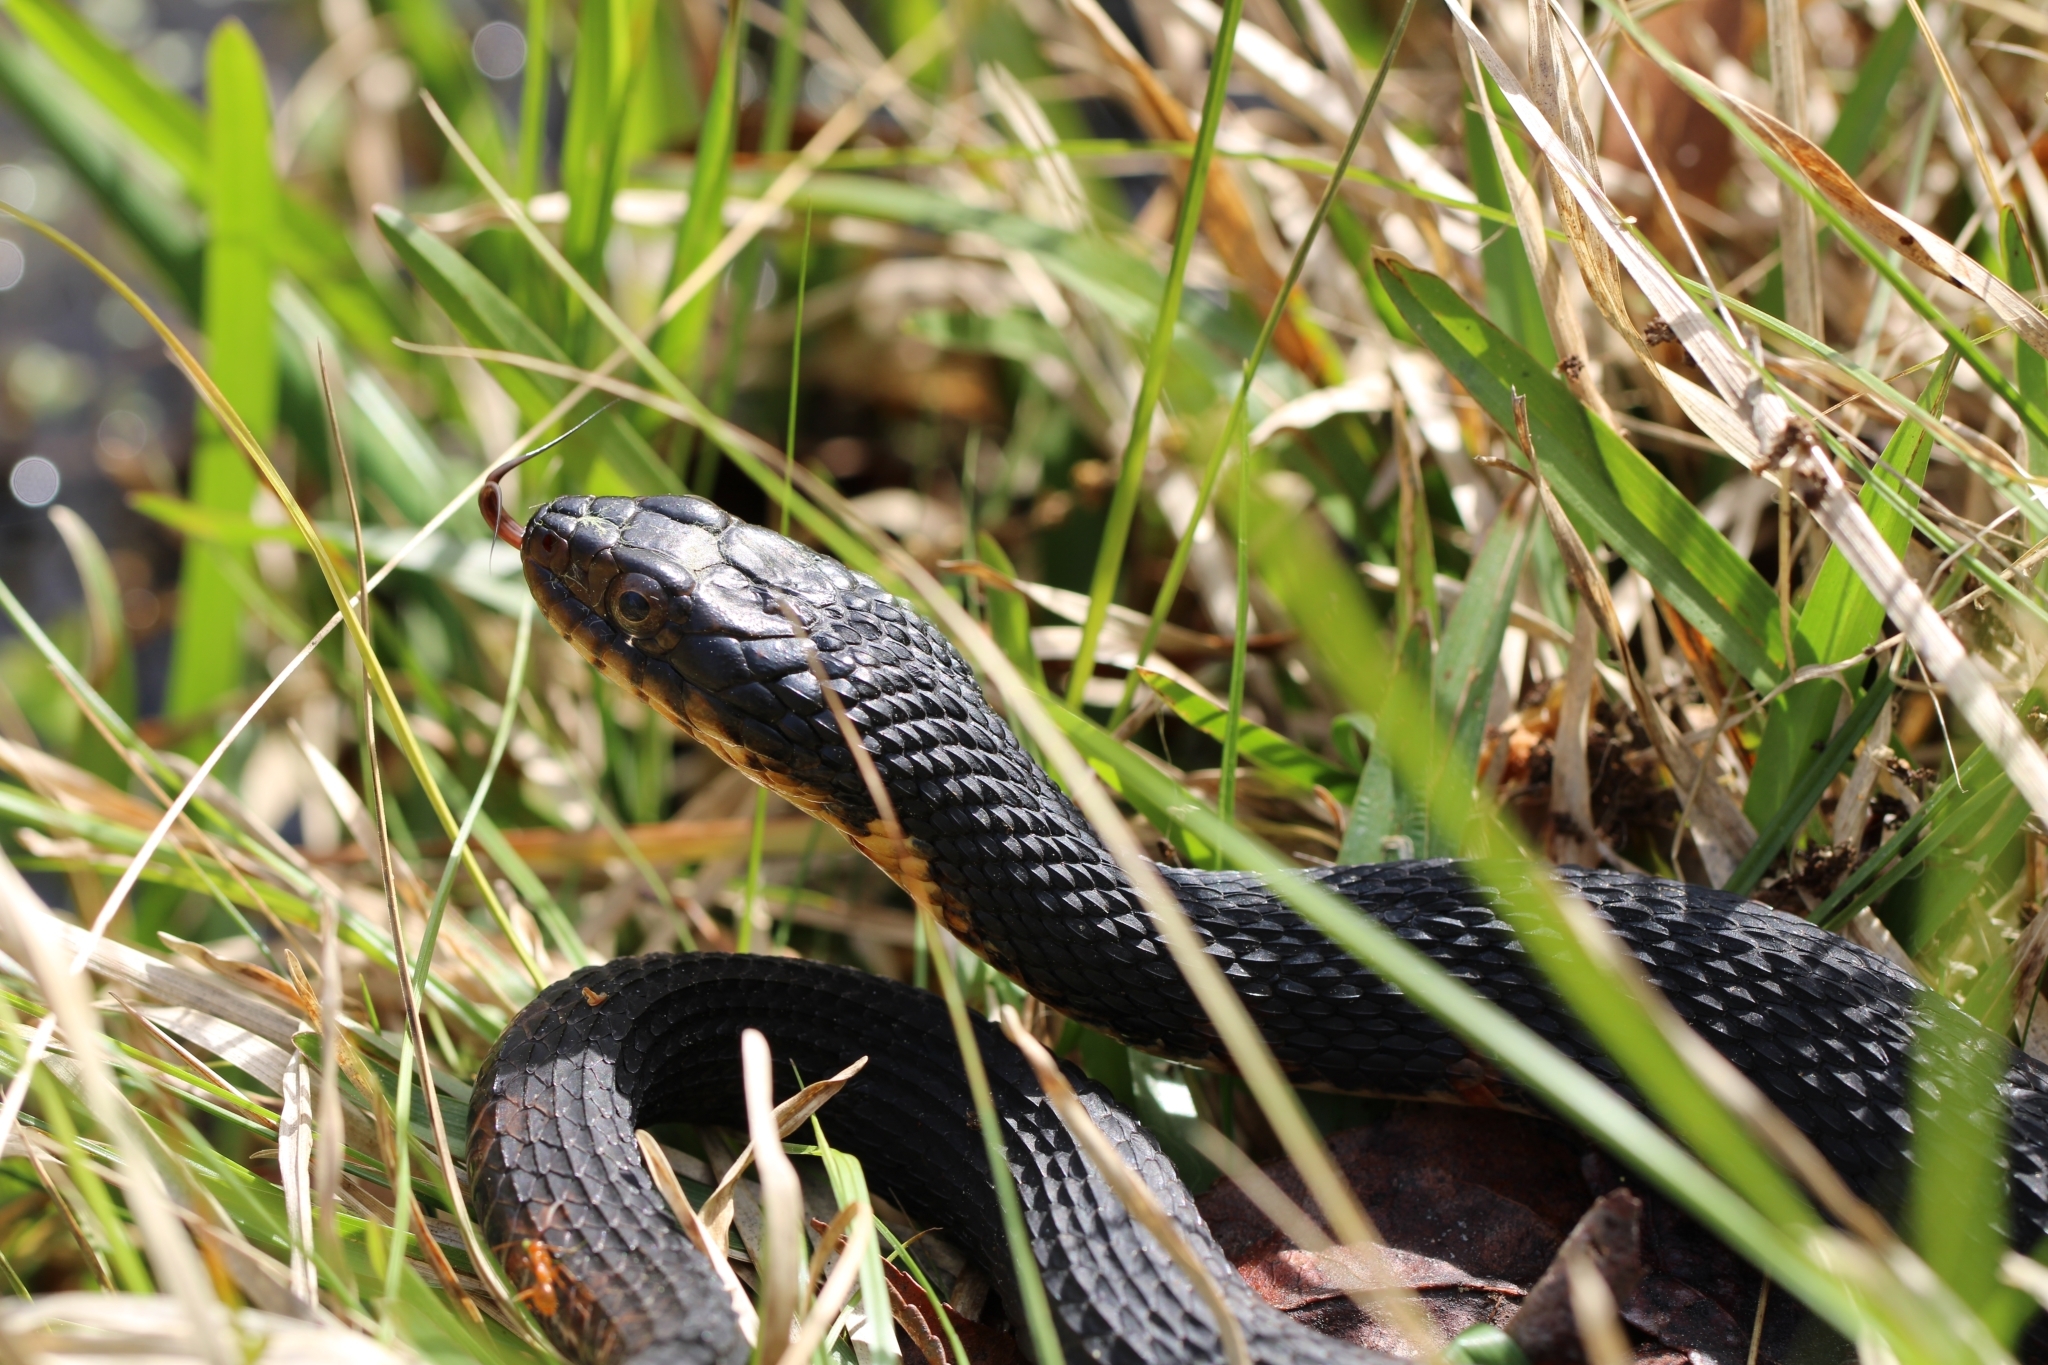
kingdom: Animalia
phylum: Chordata
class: Squamata
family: Colubridae
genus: Nerodia
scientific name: Nerodia fasciata
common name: Southern water snake
